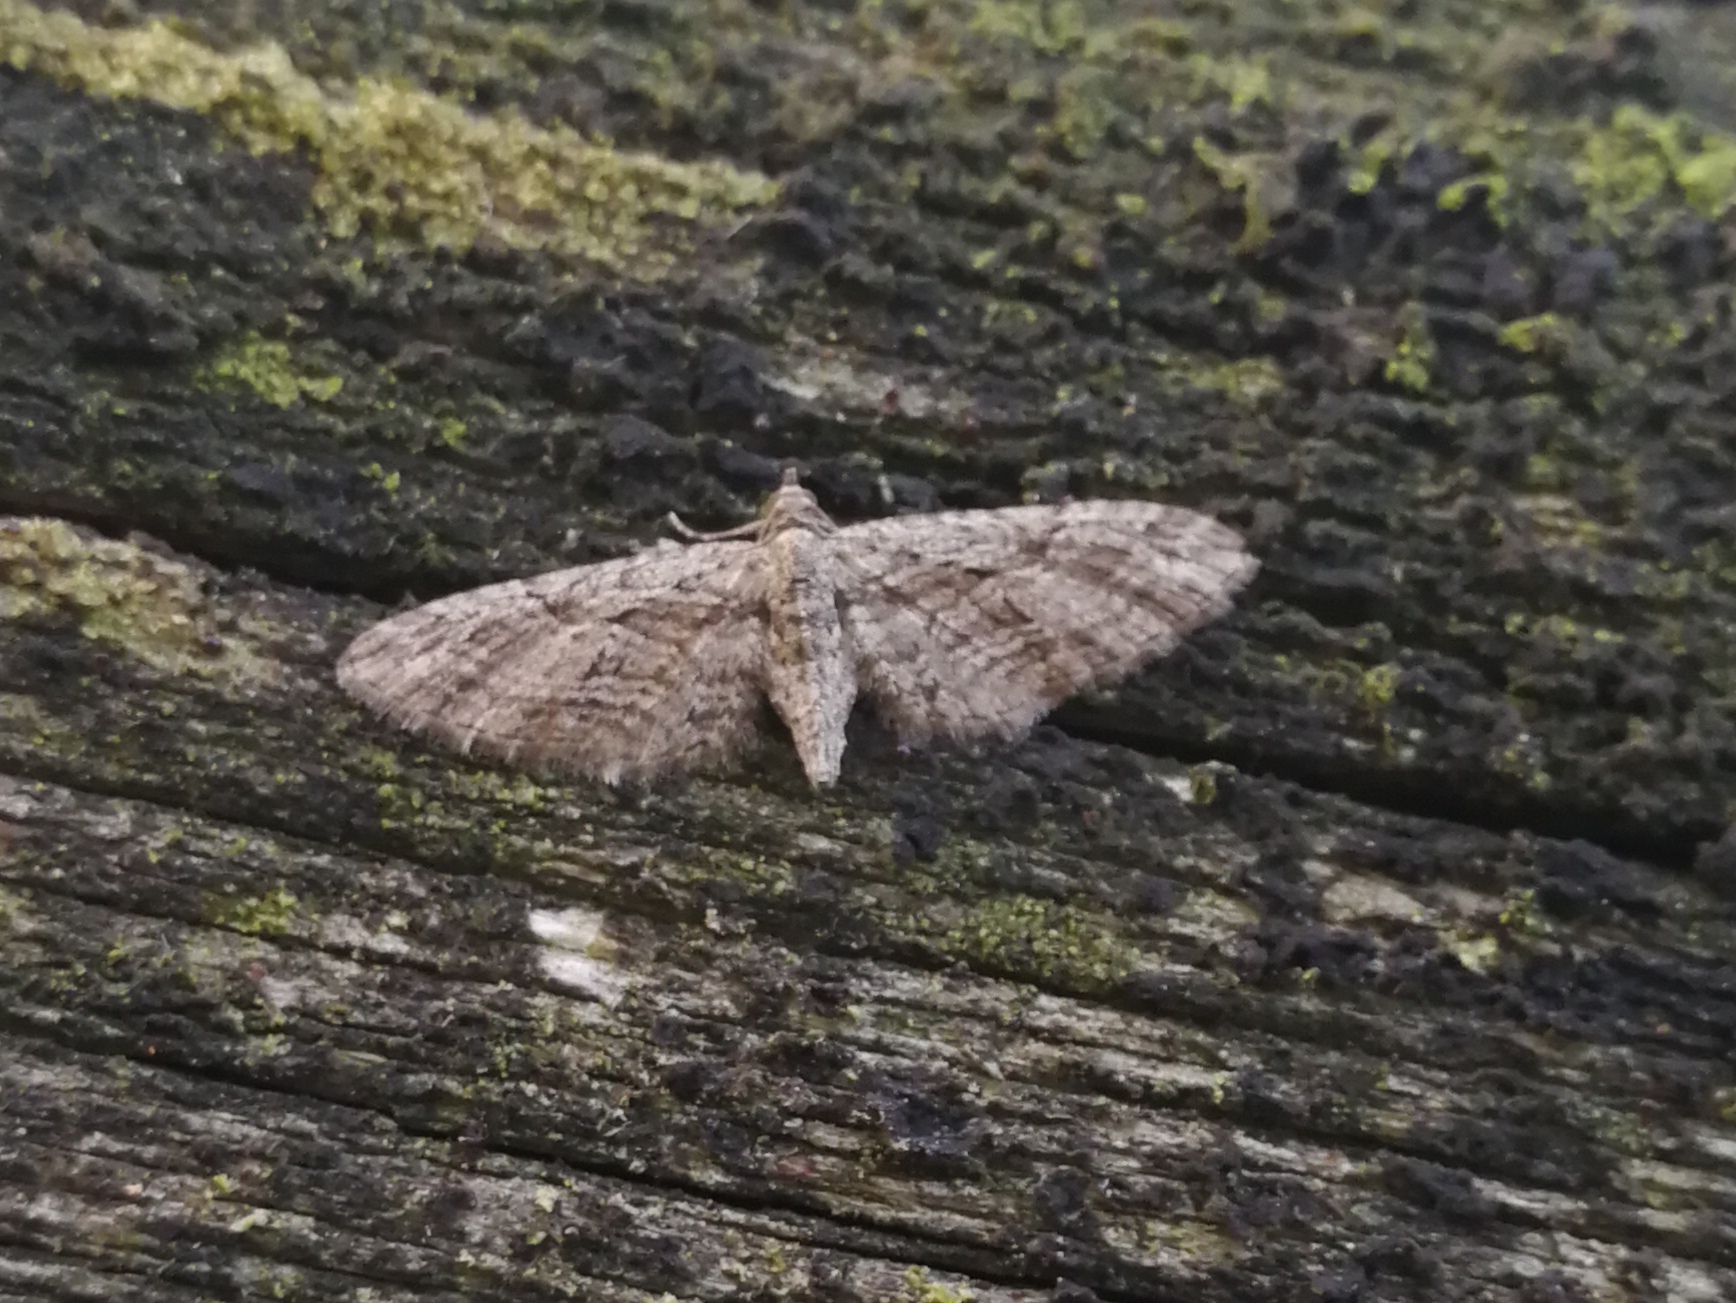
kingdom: Animalia
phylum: Arthropoda
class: Insecta
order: Lepidoptera
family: Geometridae
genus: Eupithecia
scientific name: Eupithecia oxycedrata
